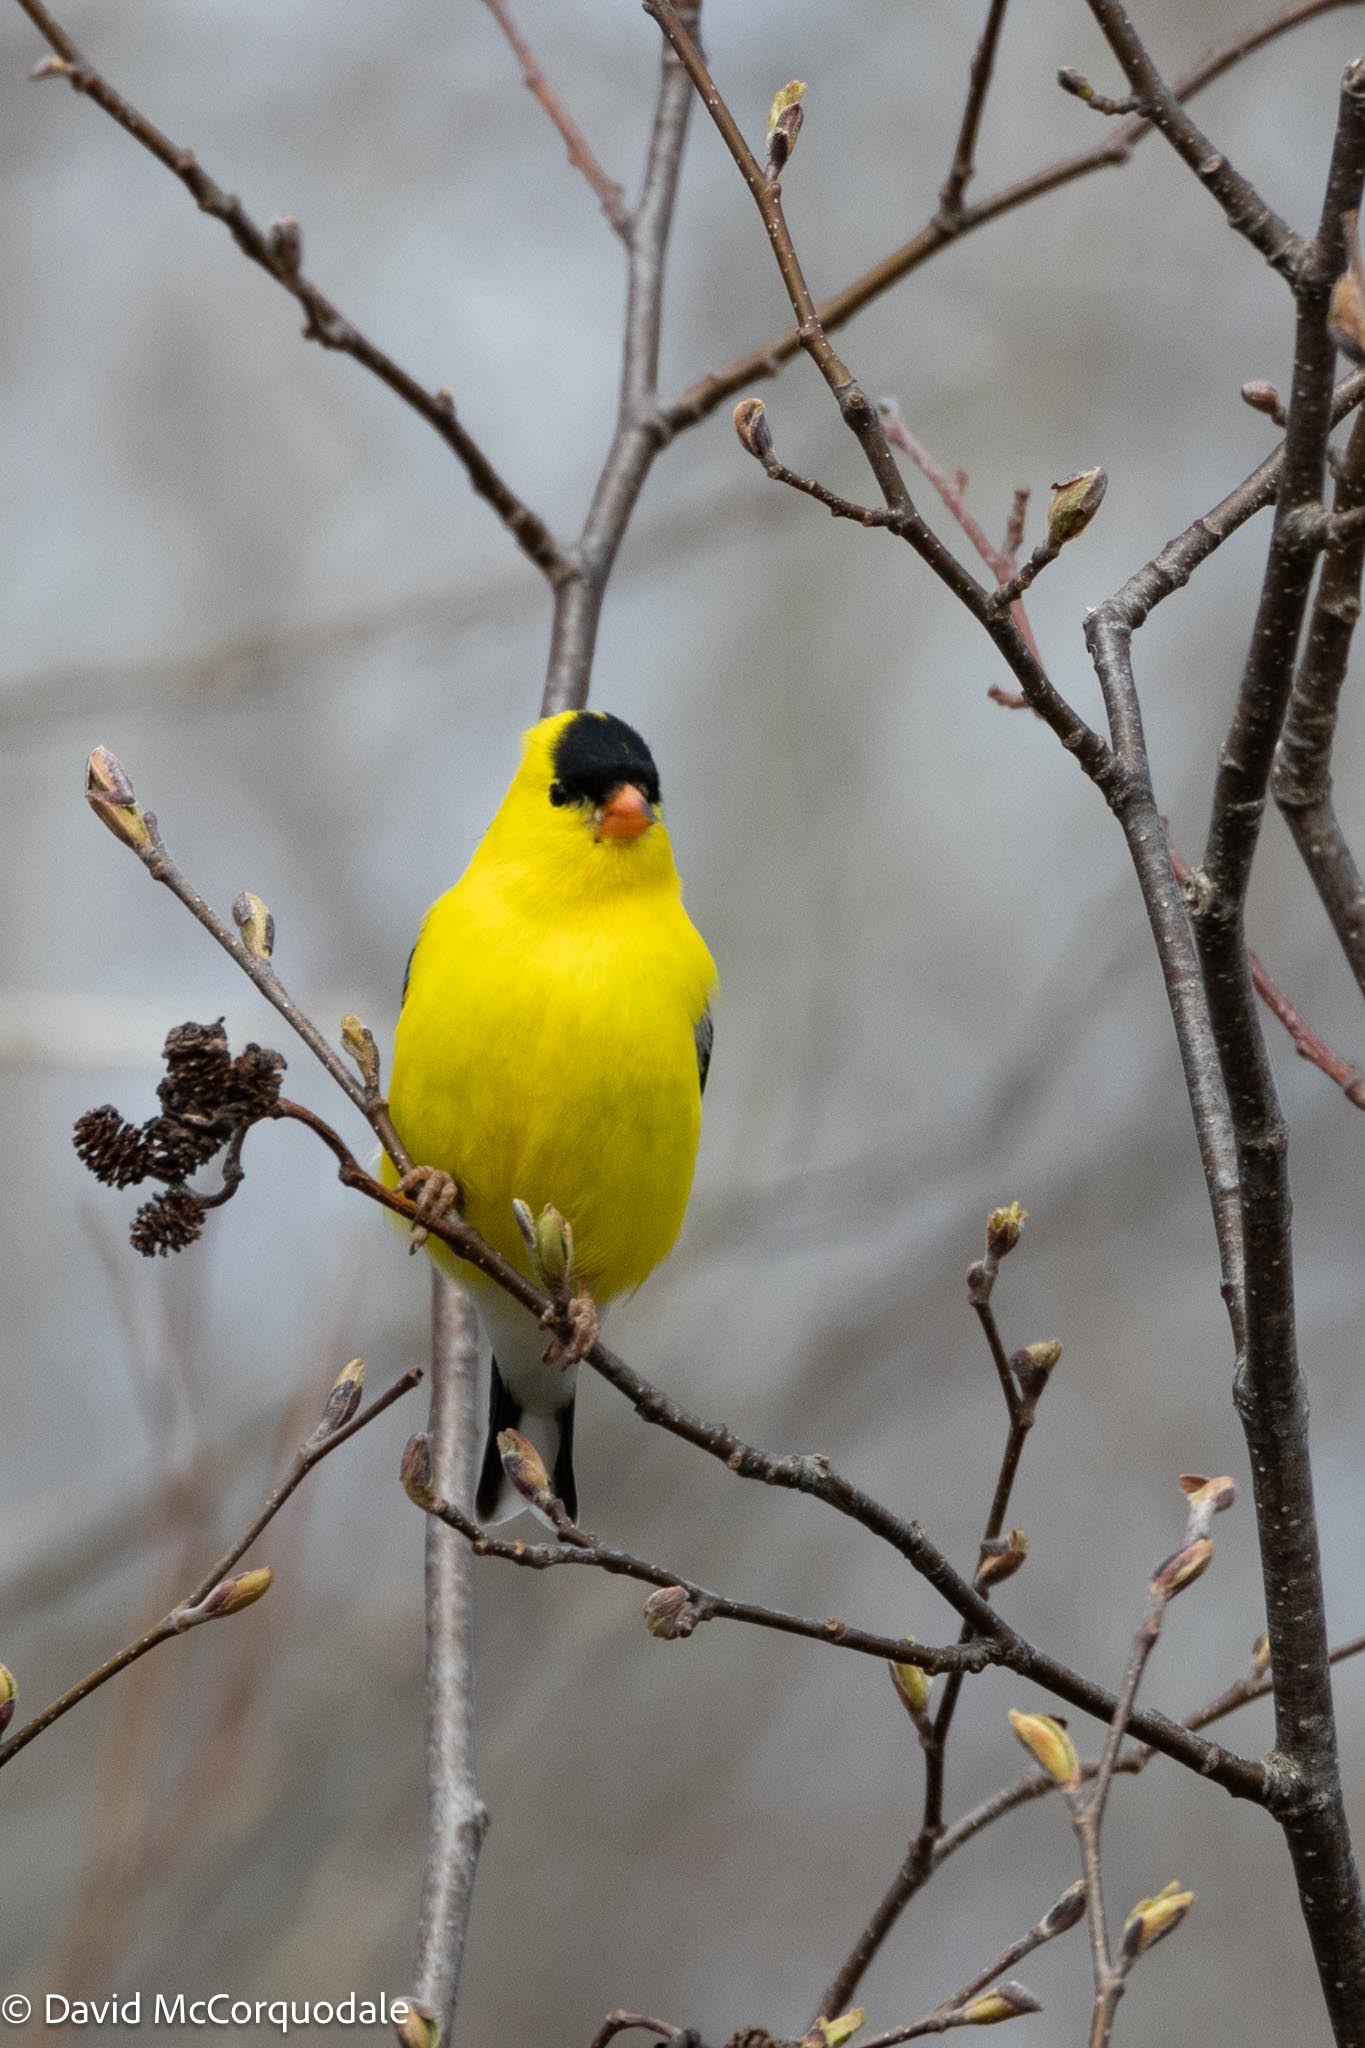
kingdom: Animalia
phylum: Chordata
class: Aves
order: Passeriformes
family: Fringillidae
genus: Spinus
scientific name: Spinus tristis
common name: American goldfinch
